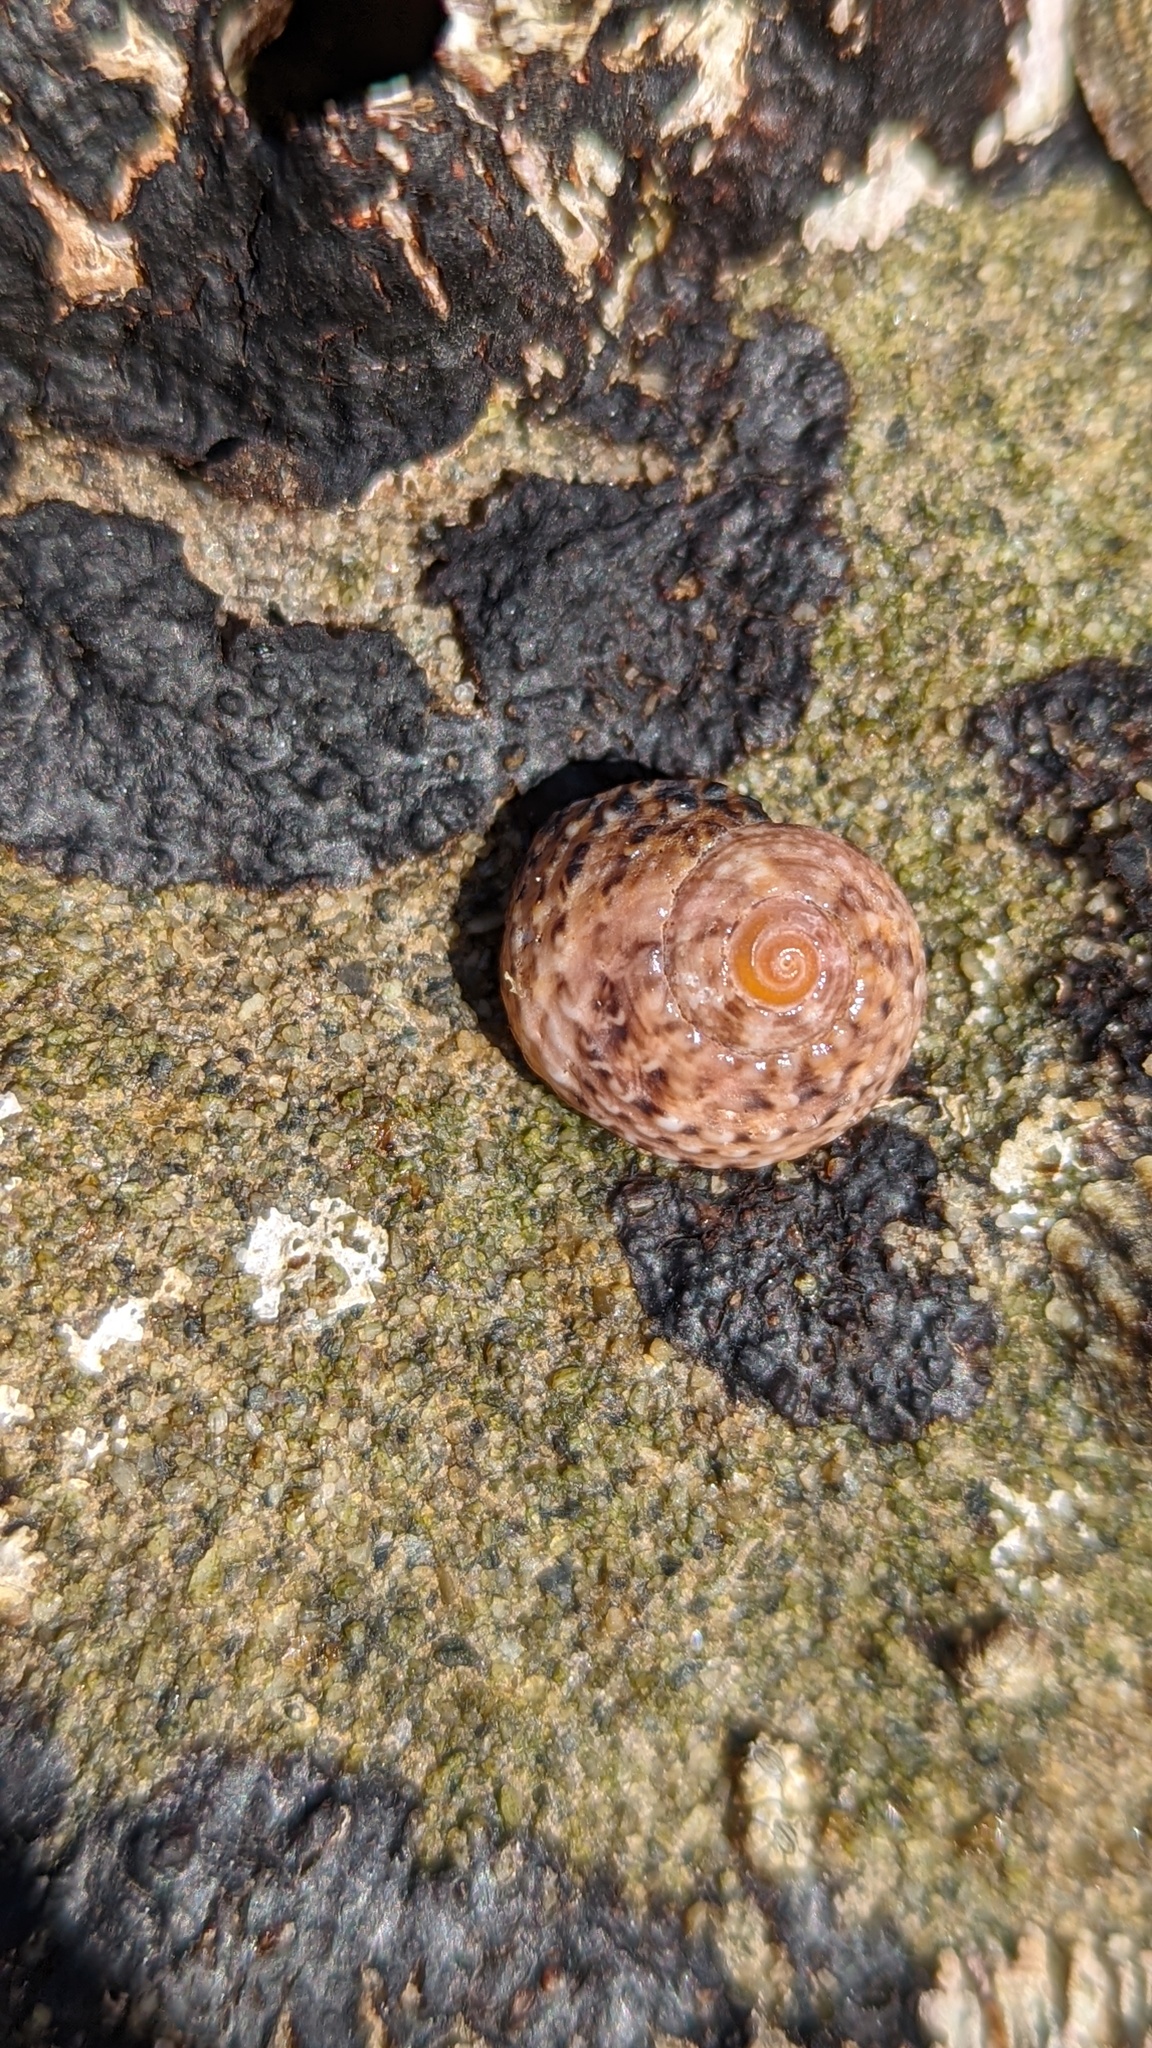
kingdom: Animalia
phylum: Mollusca
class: Gastropoda
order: Trochida
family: Tegulidae
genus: Tegula
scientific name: Tegula eiseni
